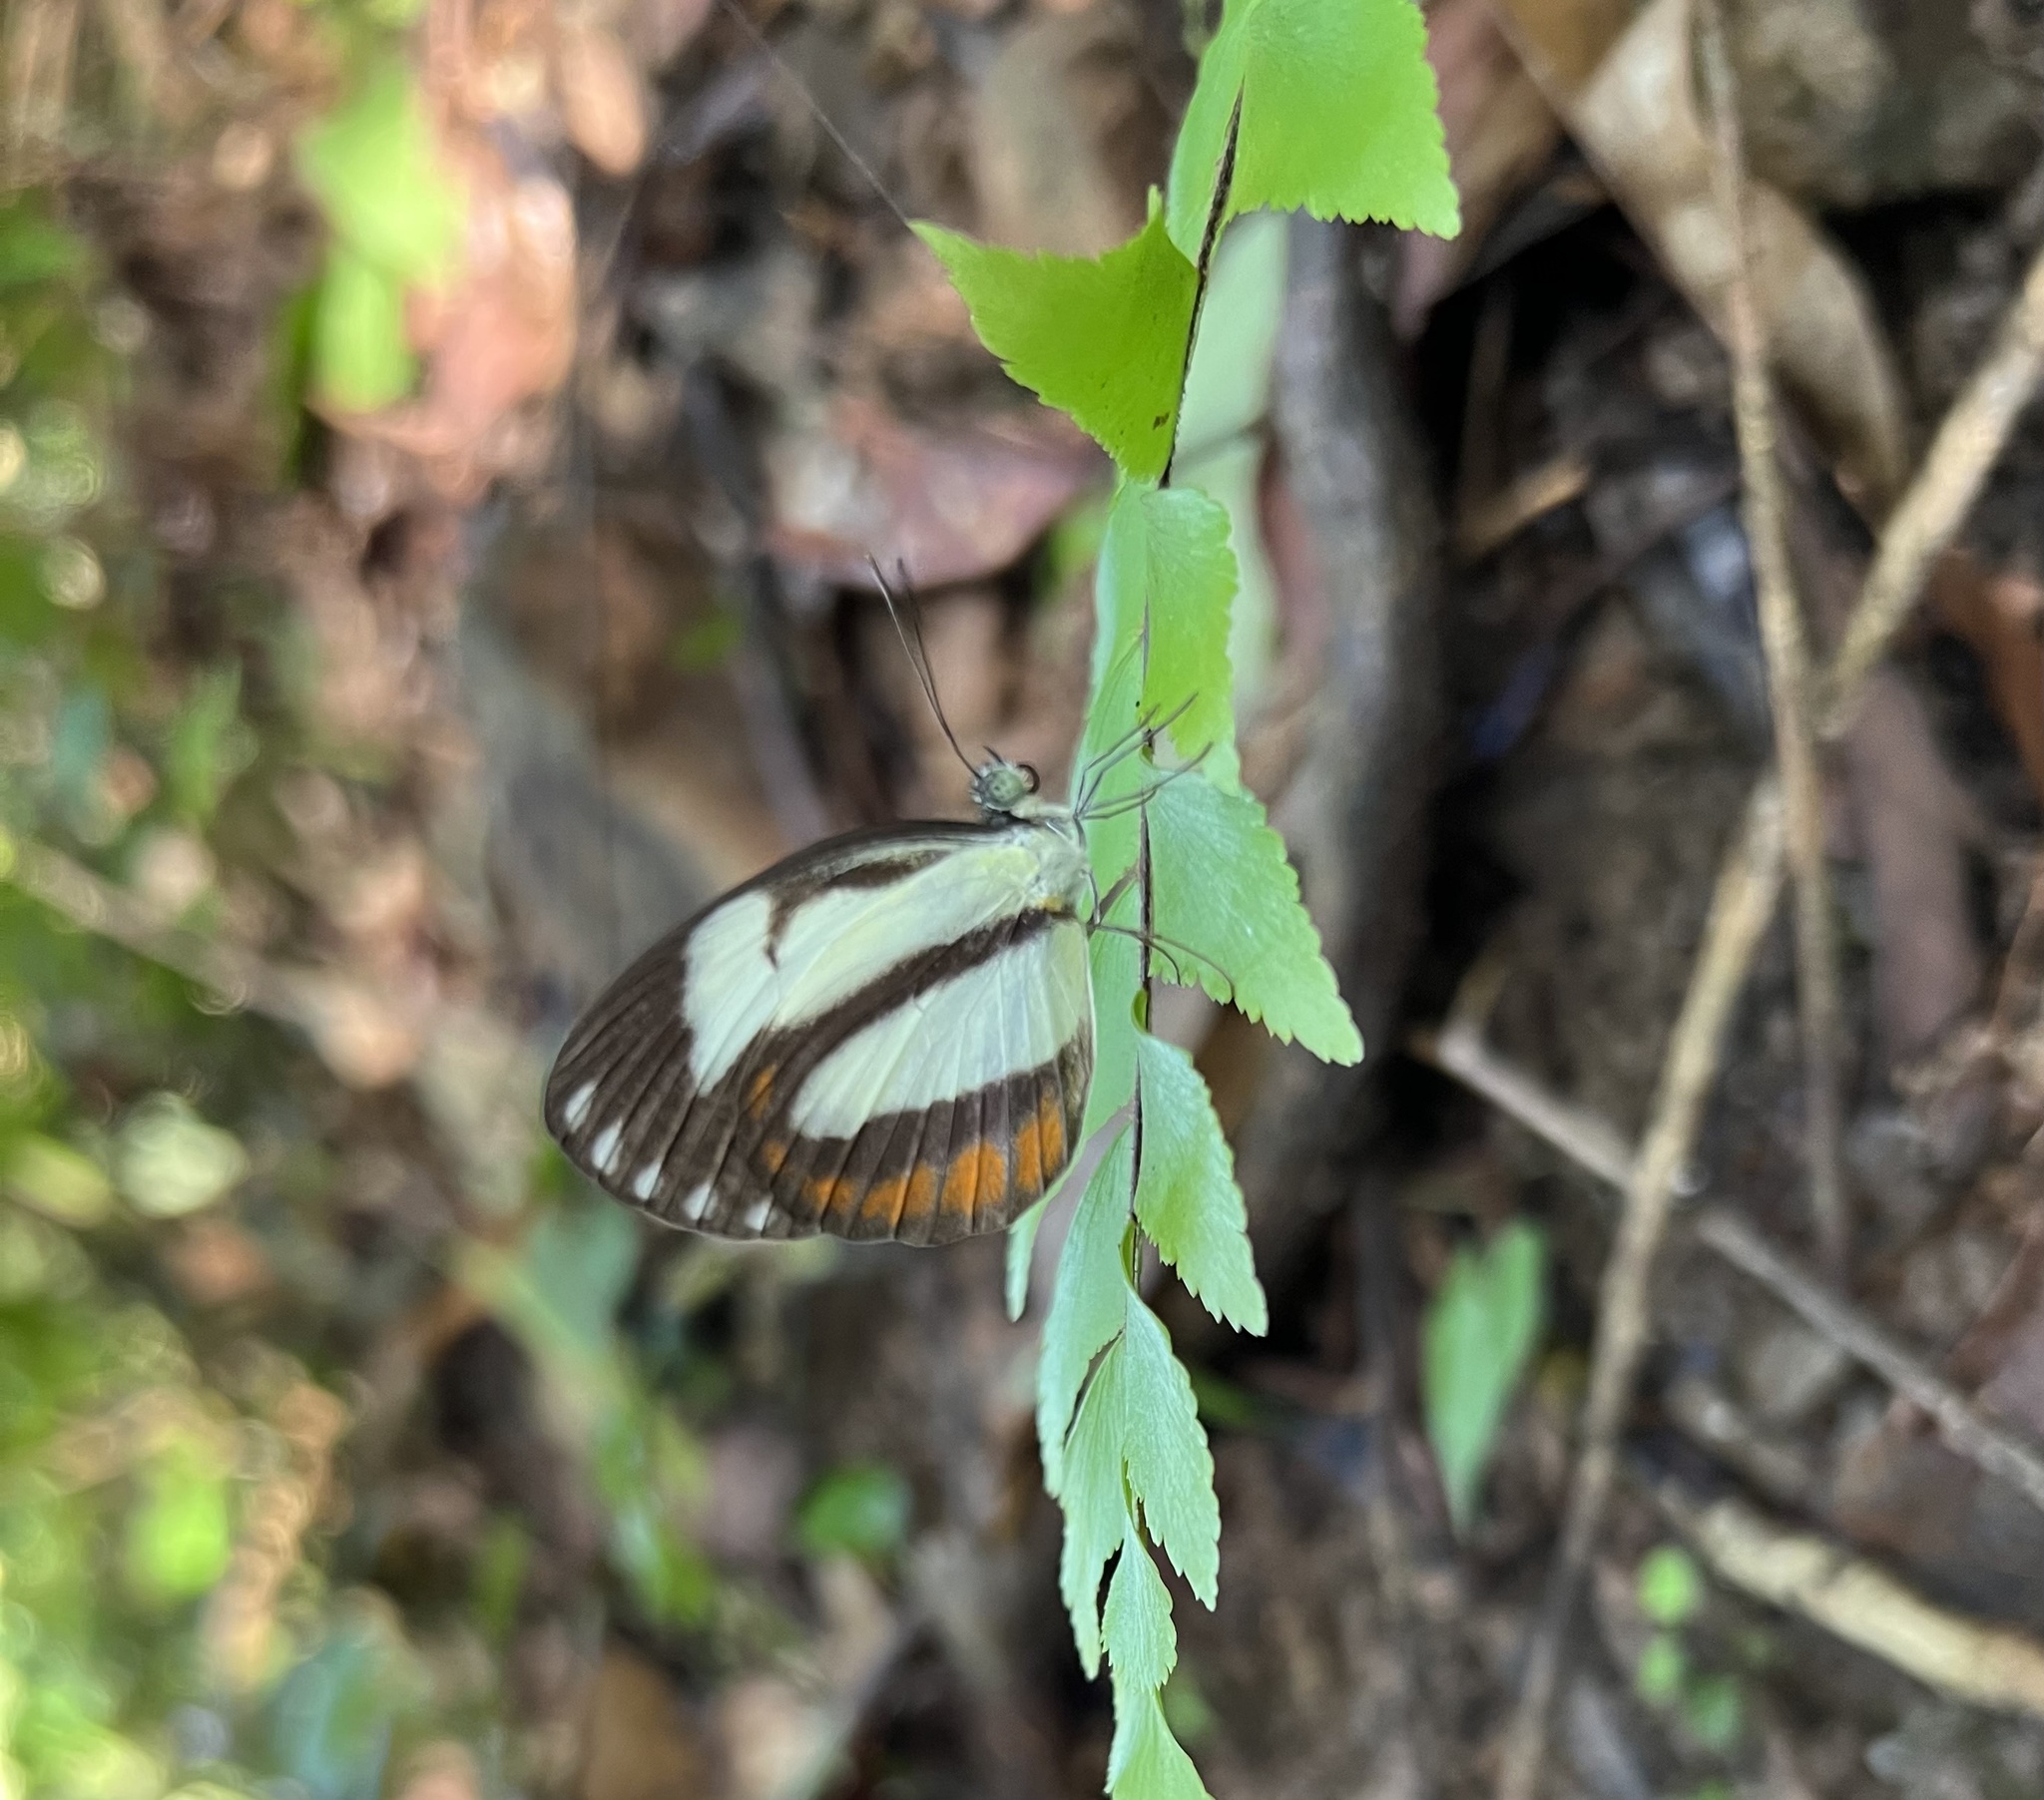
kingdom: Animalia
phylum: Arthropoda
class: Insecta
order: Lepidoptera
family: Pieridae
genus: Itaballia
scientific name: Itaballia pandosia
